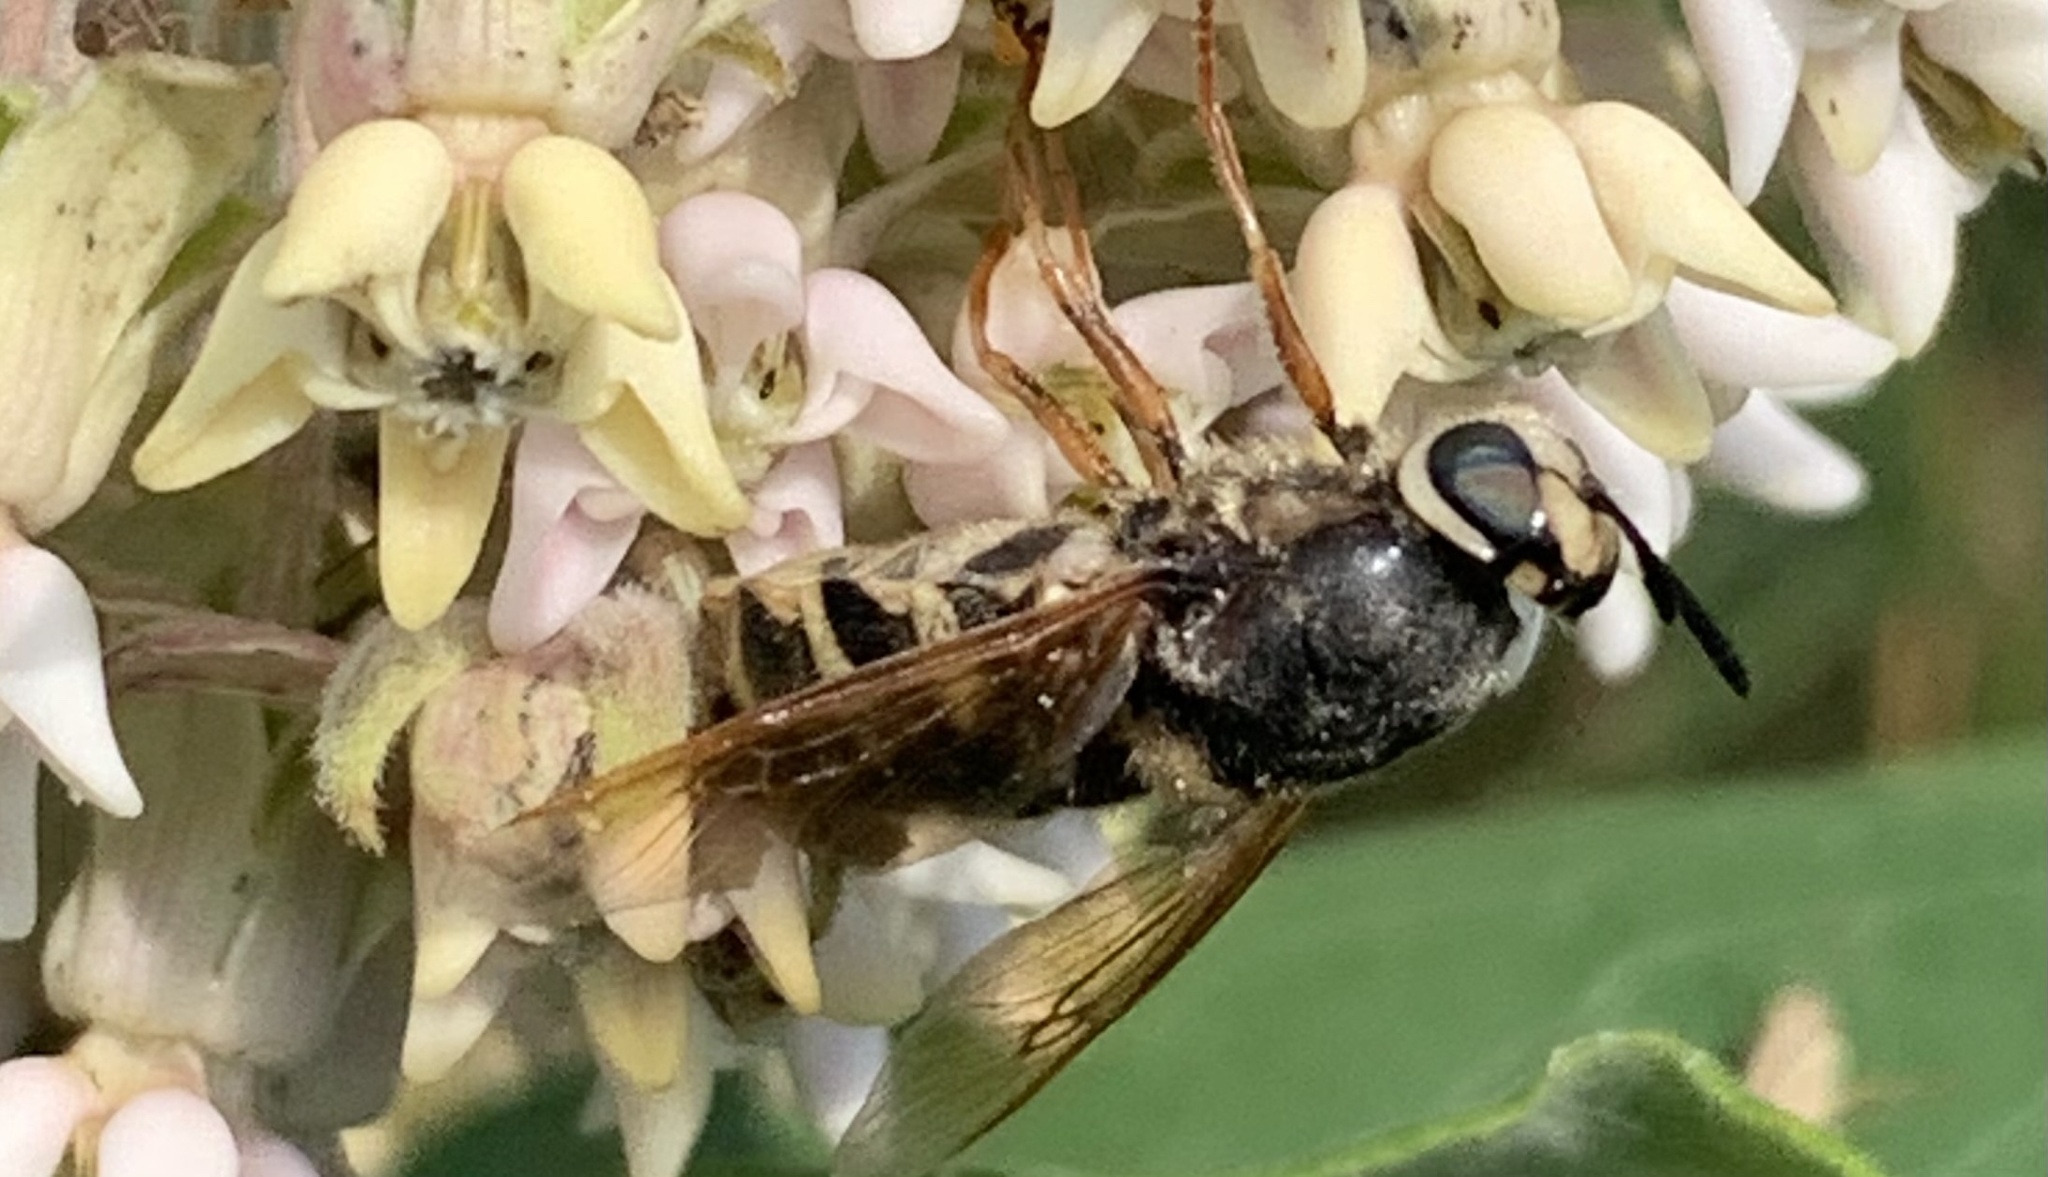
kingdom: Animalia
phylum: Arthropoda
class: Insecta
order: Diptera
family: Stratiomyidae
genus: Stratiomys
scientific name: Stratiomys badia
